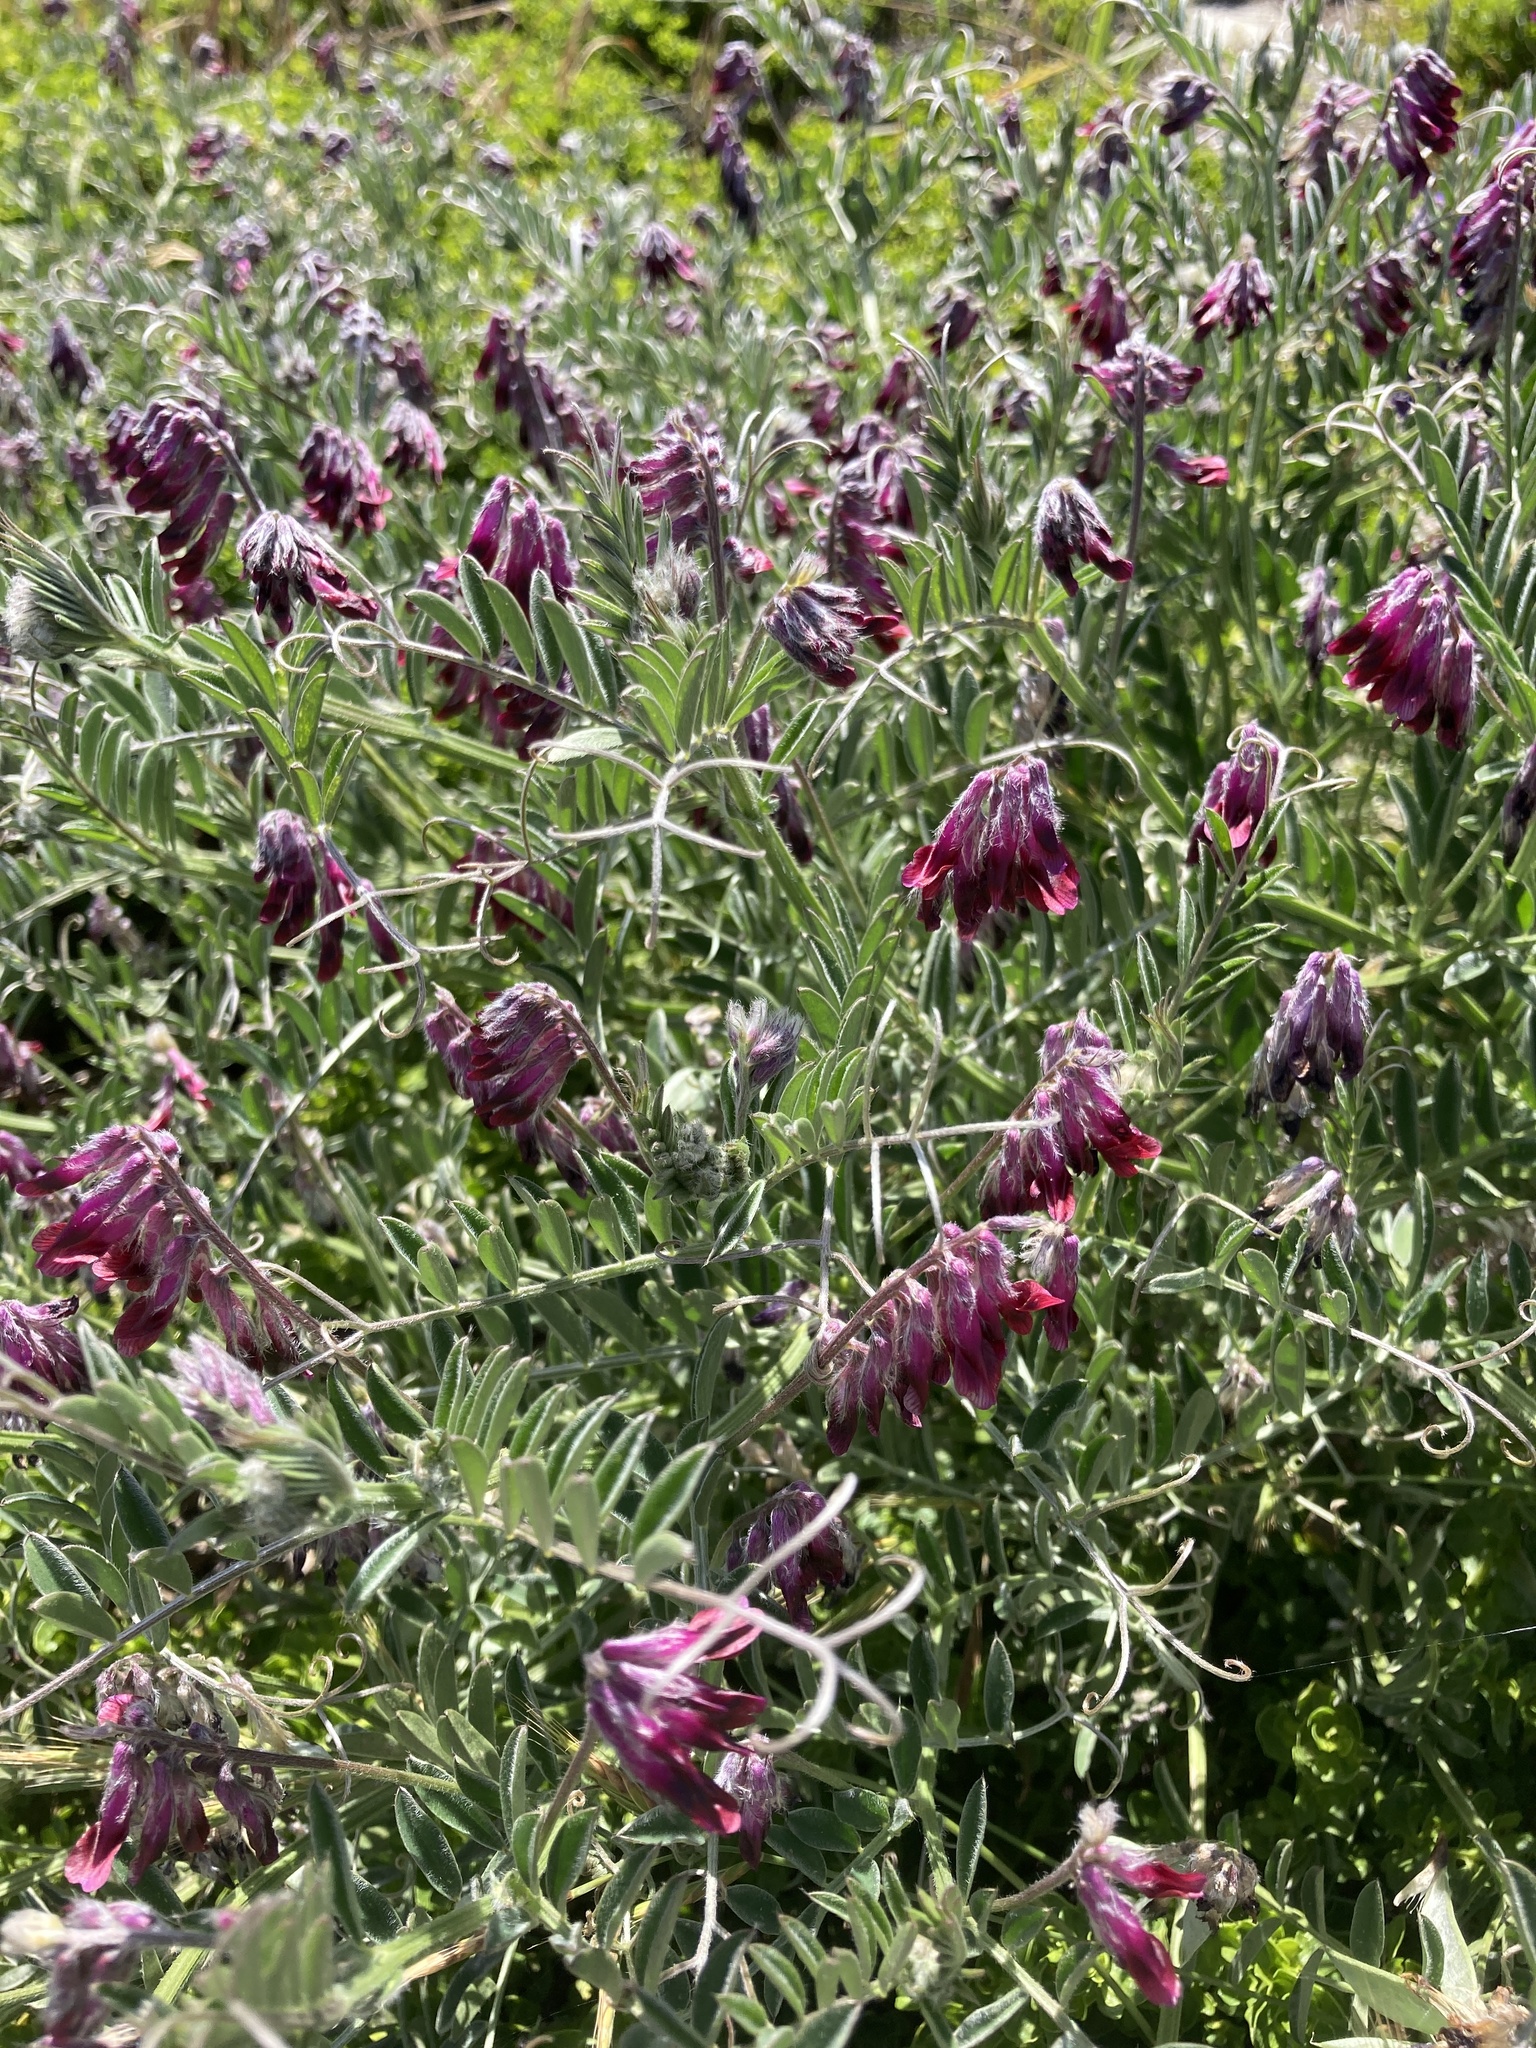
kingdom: Plantae
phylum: Tracheophyta
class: Magnoliopsida
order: Fabales
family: Fabaceae
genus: Vicia
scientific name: Vicia benghalensis
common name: Purple vetch
